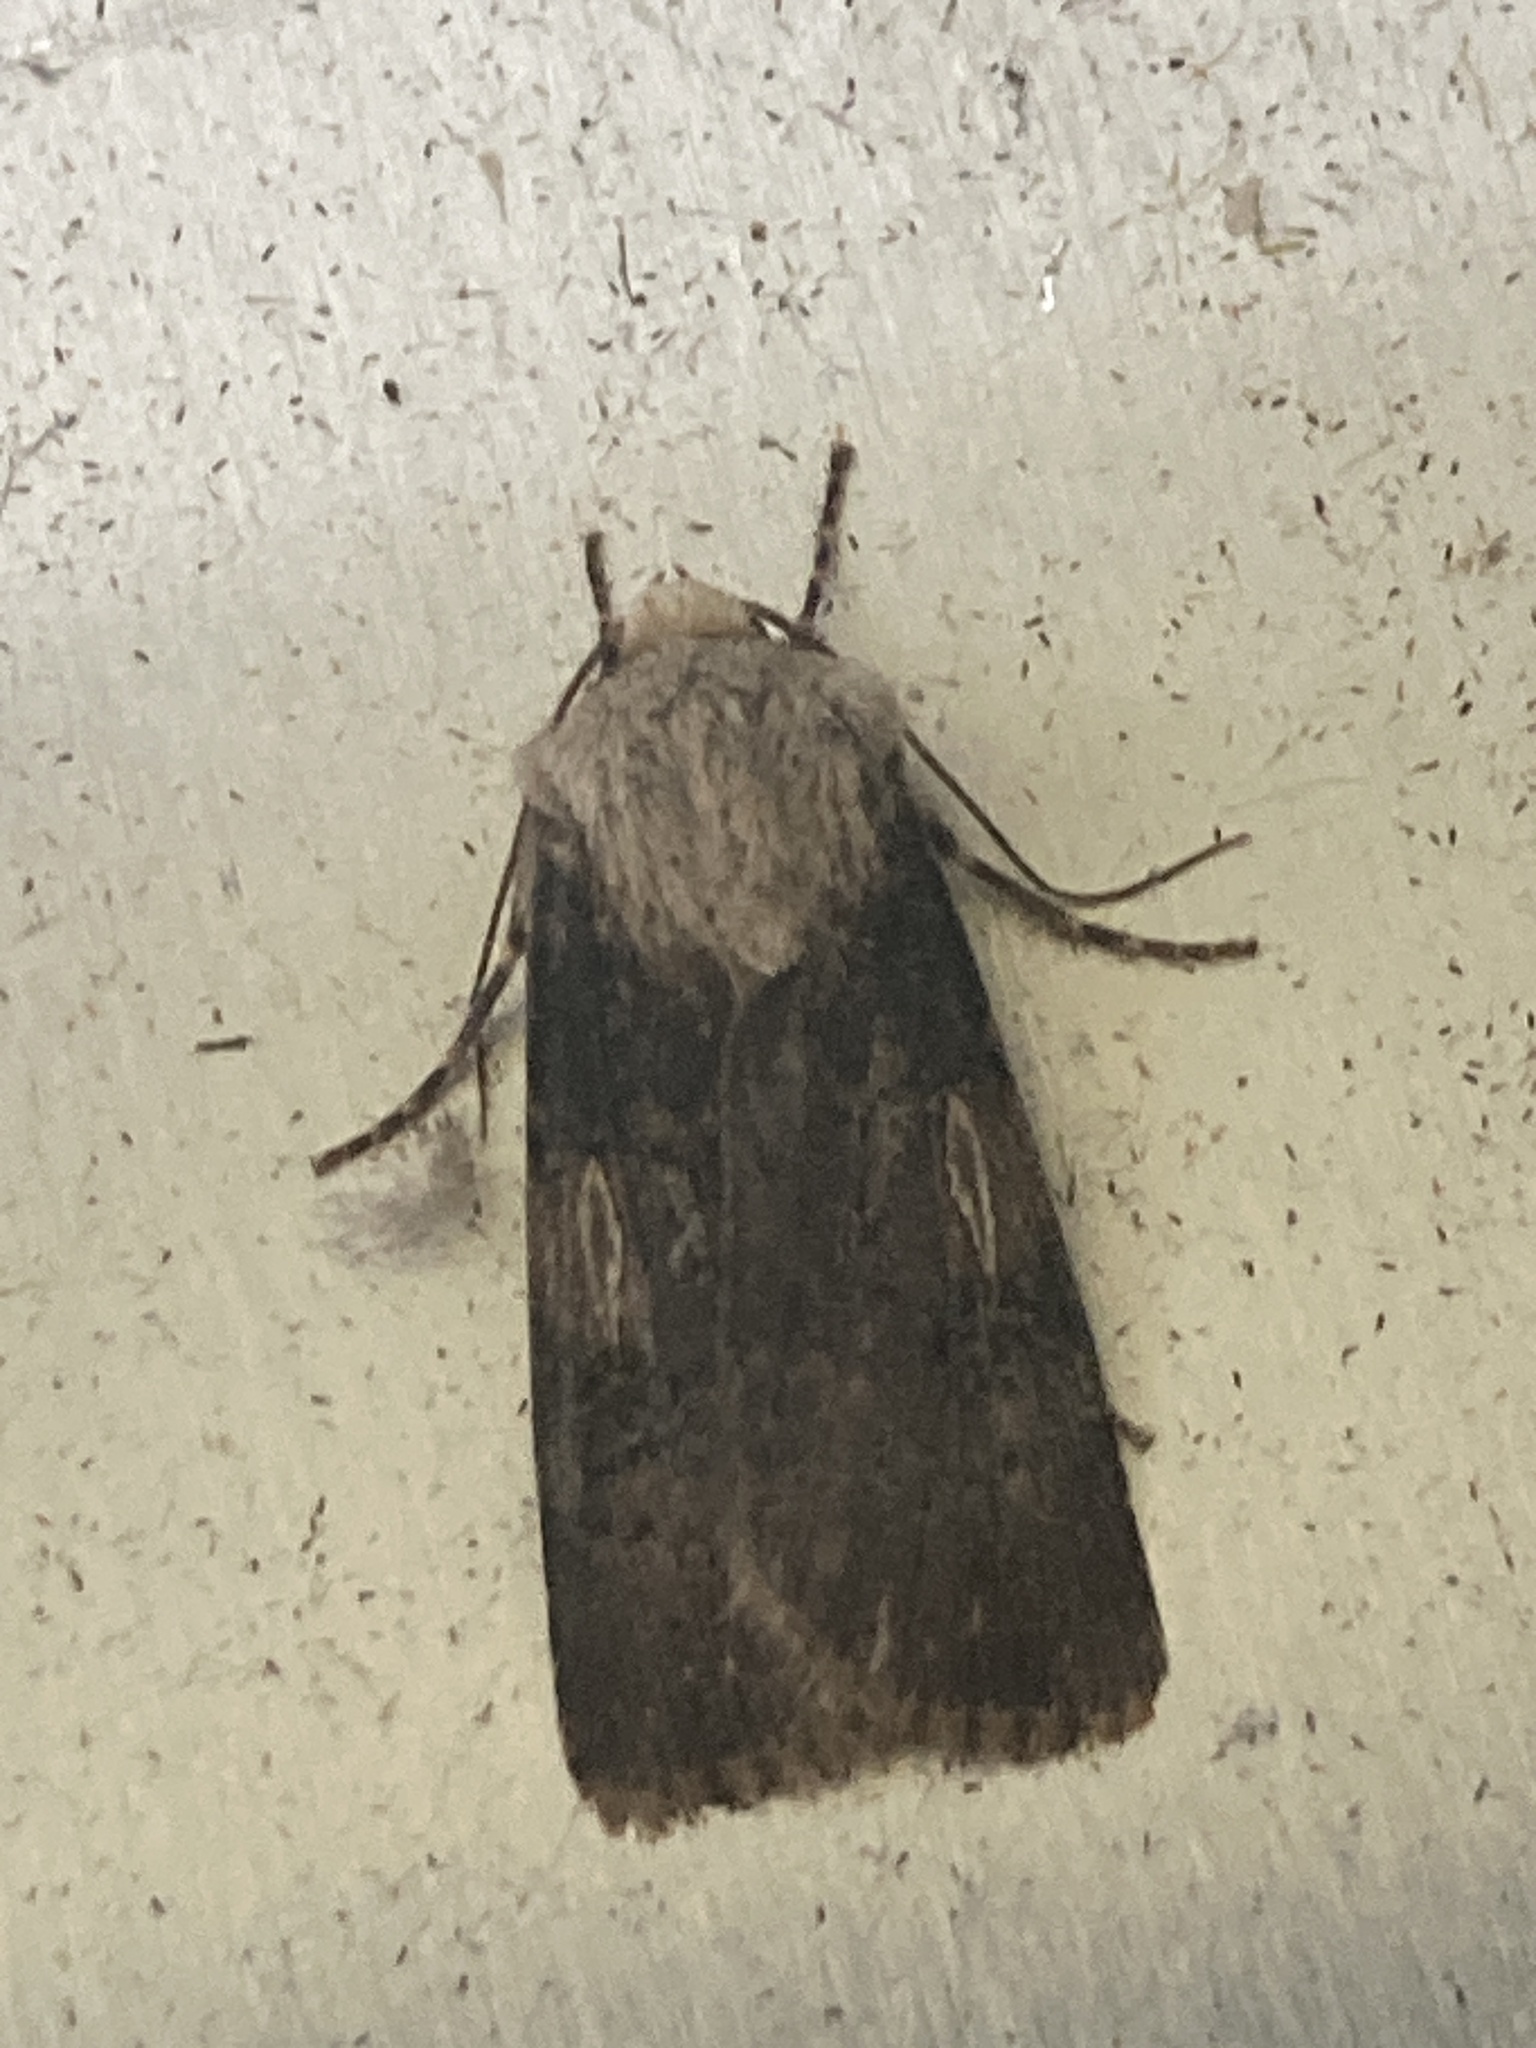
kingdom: Animalia
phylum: Arthropoda
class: Insecta
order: Lepidoptera
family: Noctuidae
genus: Agrotis
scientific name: Agrotis puta
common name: Shuttle-shaped dart
